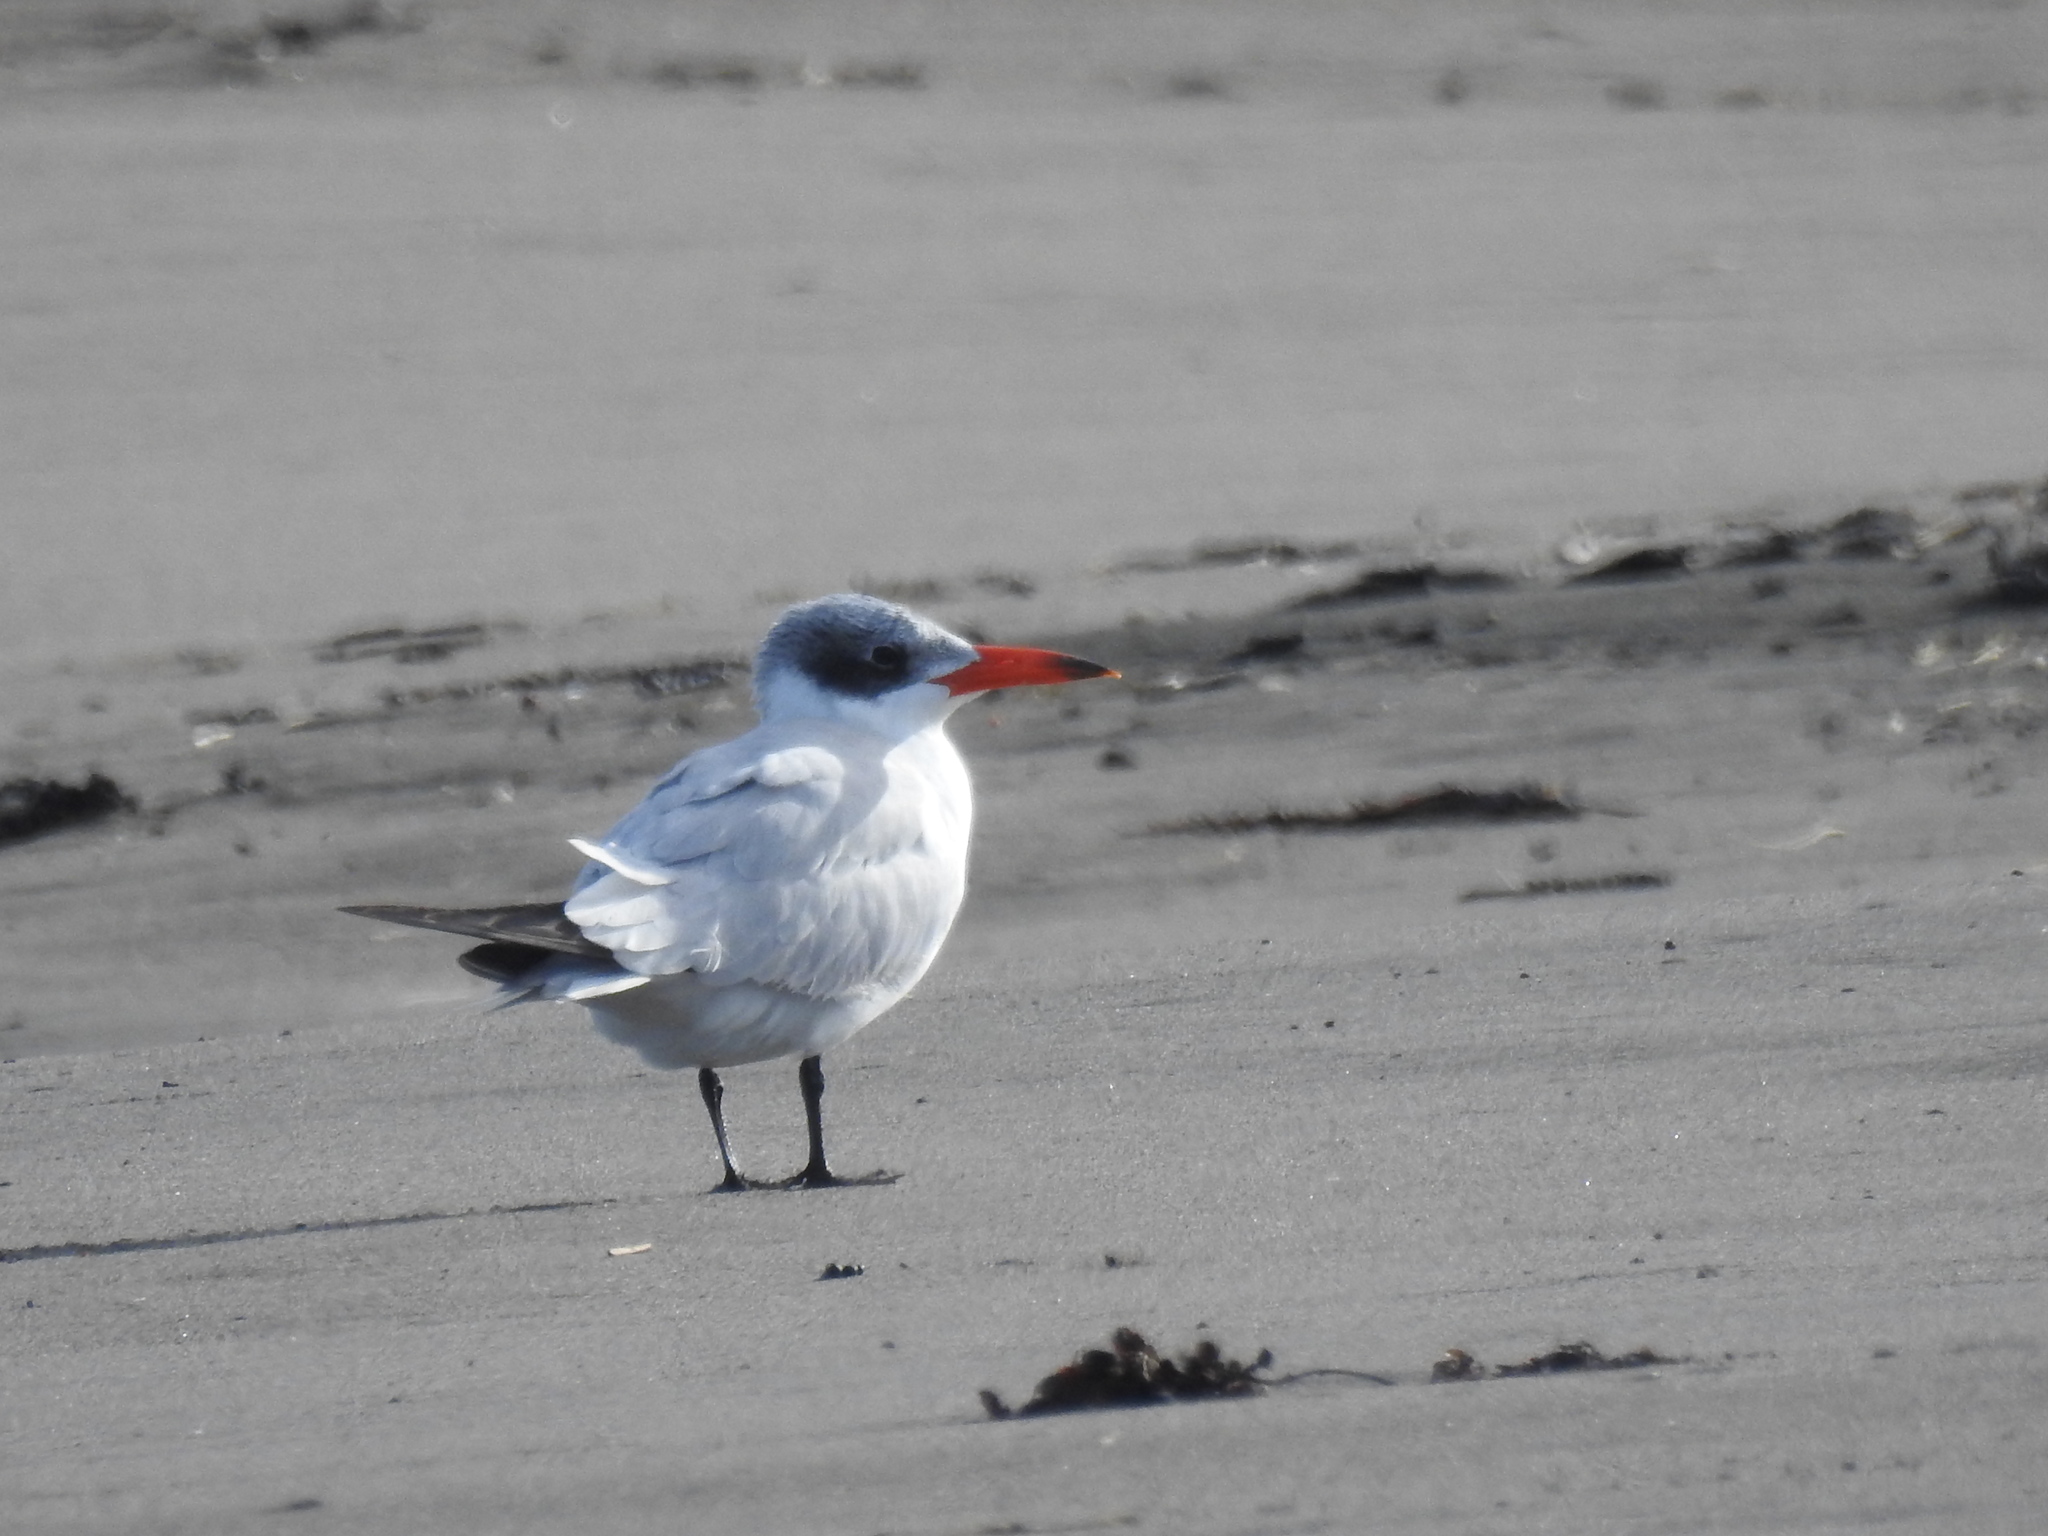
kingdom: Animalia
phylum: Chordata
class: Aves
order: Charadriiformes
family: Laridae
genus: Hydroprogne
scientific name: Hydroprogne caspia
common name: Caspian tern
